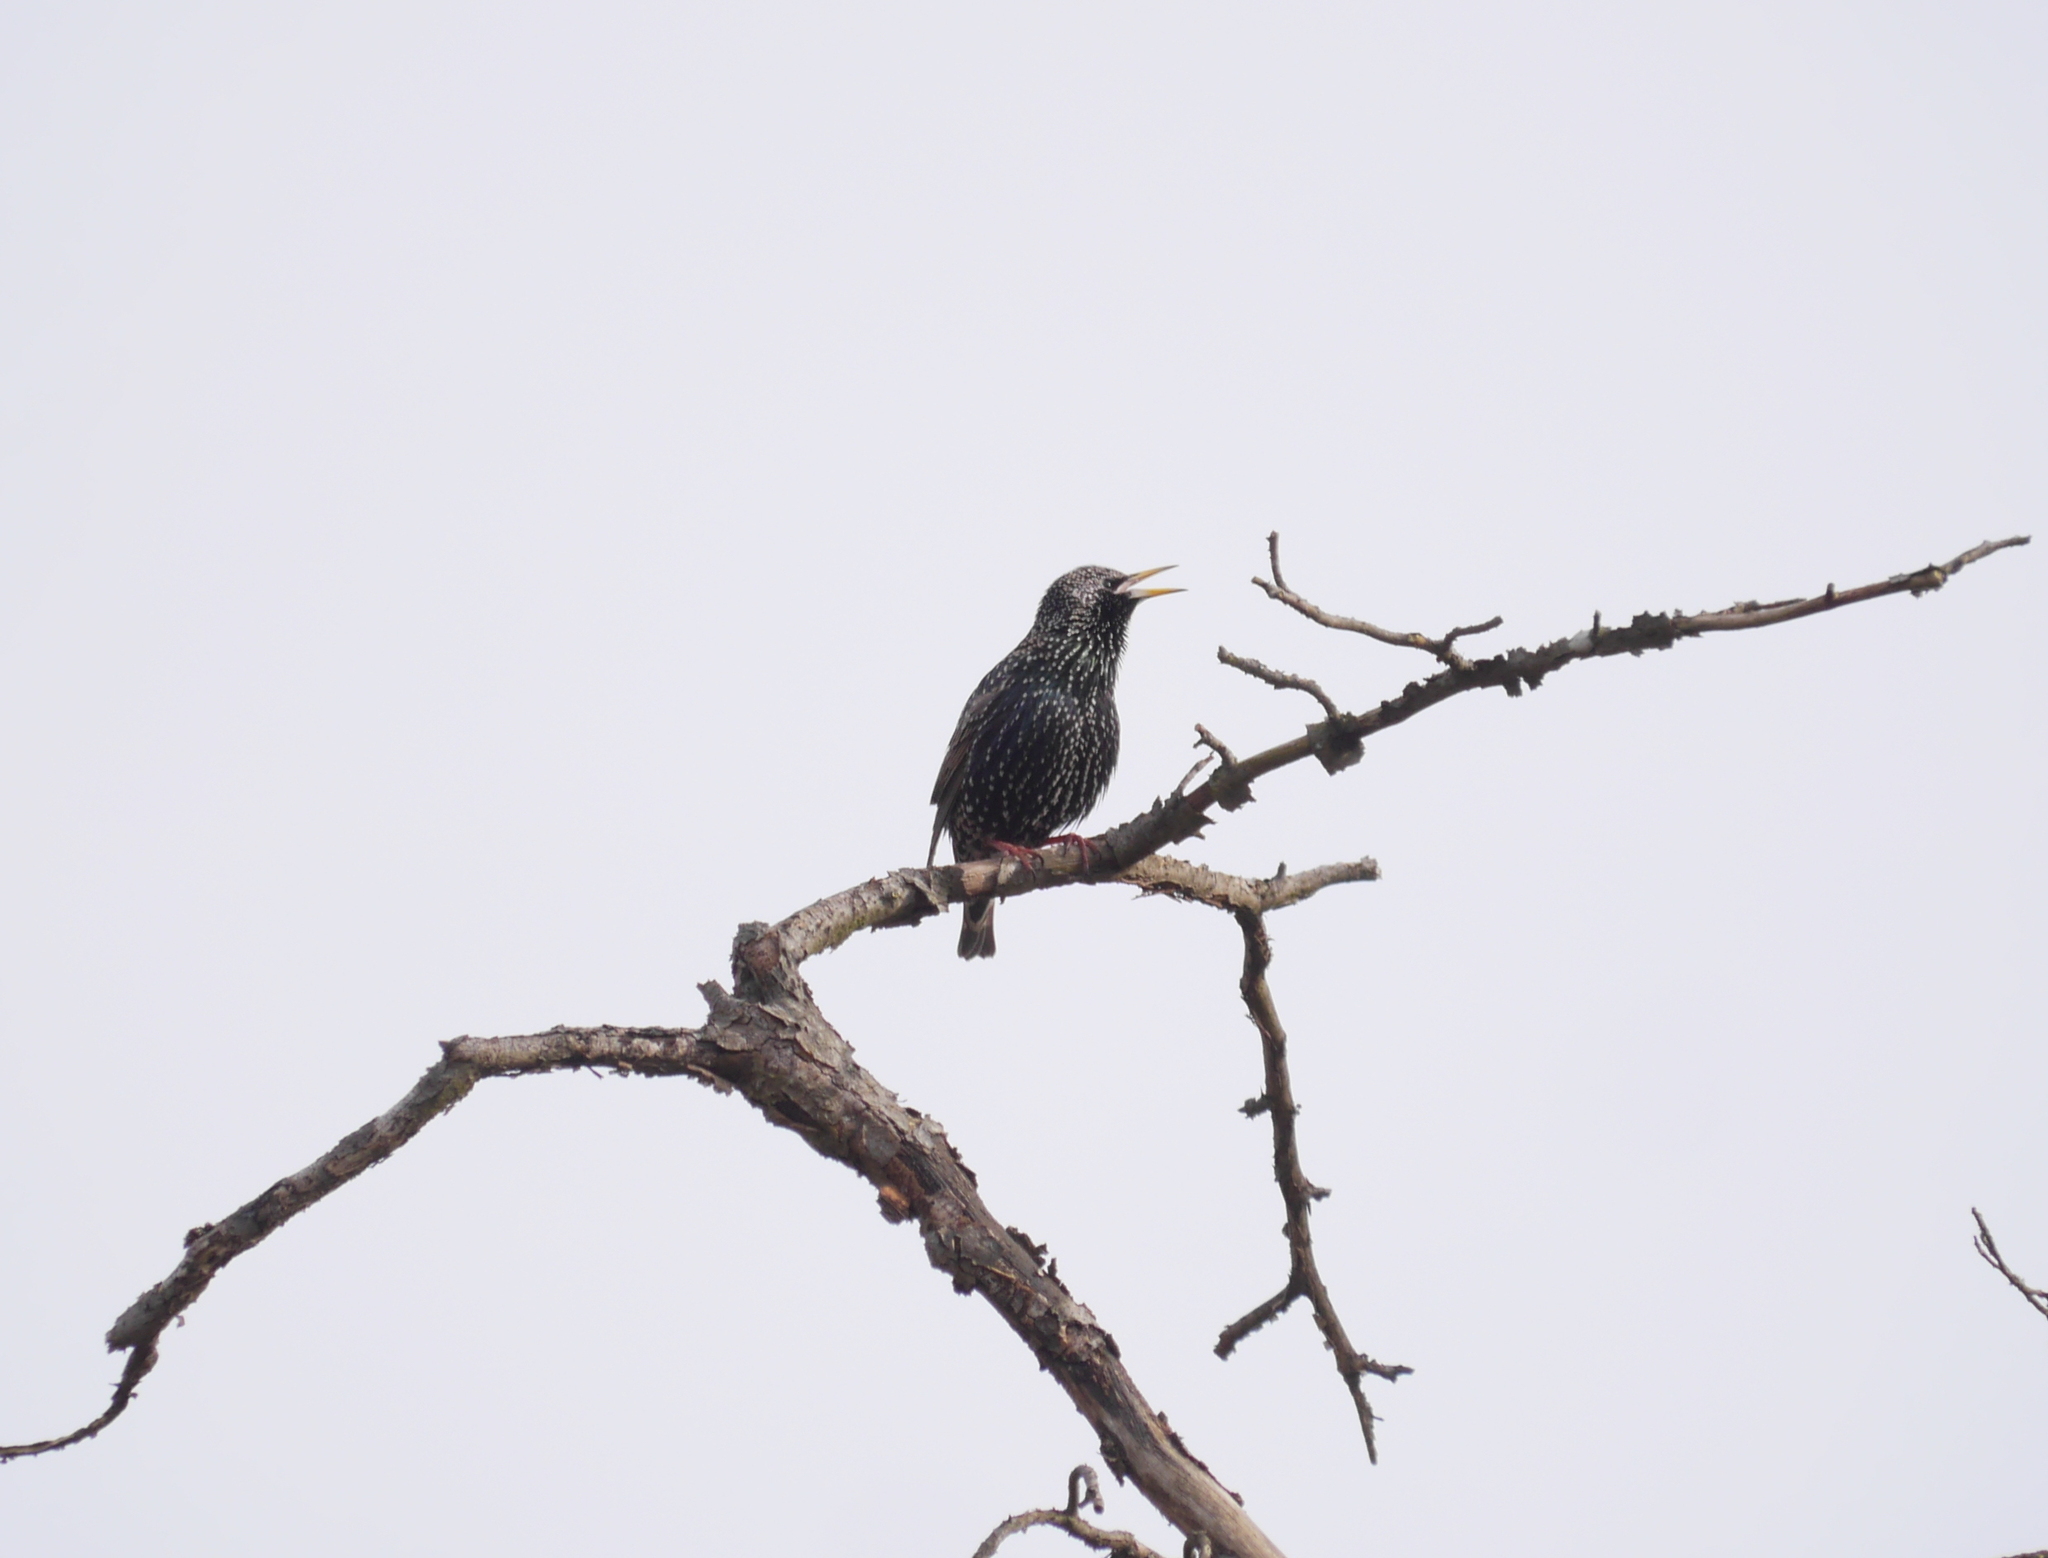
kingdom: Animalia
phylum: Chordata
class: Aves
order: Passeriformes
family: Sturnidae
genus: Sturnus
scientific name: Sturnus vulgaris
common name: Common starling
